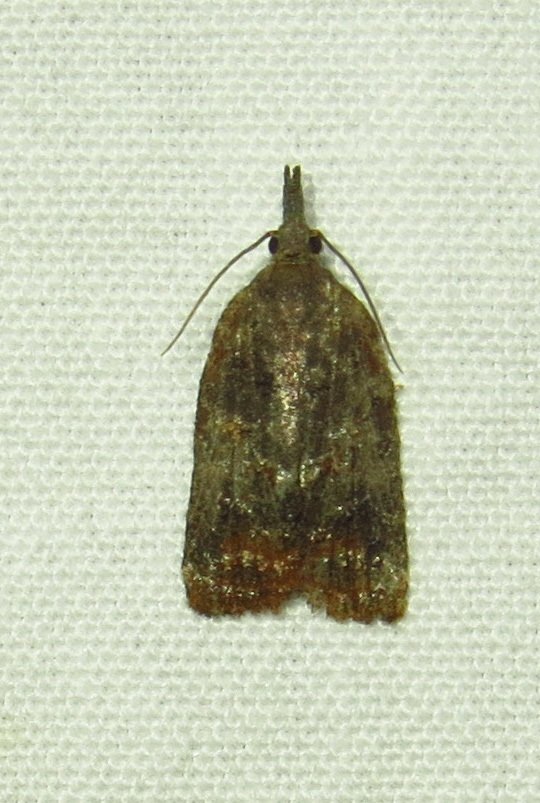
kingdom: Animalia
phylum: Arthropoda
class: Insecta
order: Lepidoptera
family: Tortricidae
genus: Platynota
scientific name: Platynota idaeusalis
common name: Tufted apple bud moth
